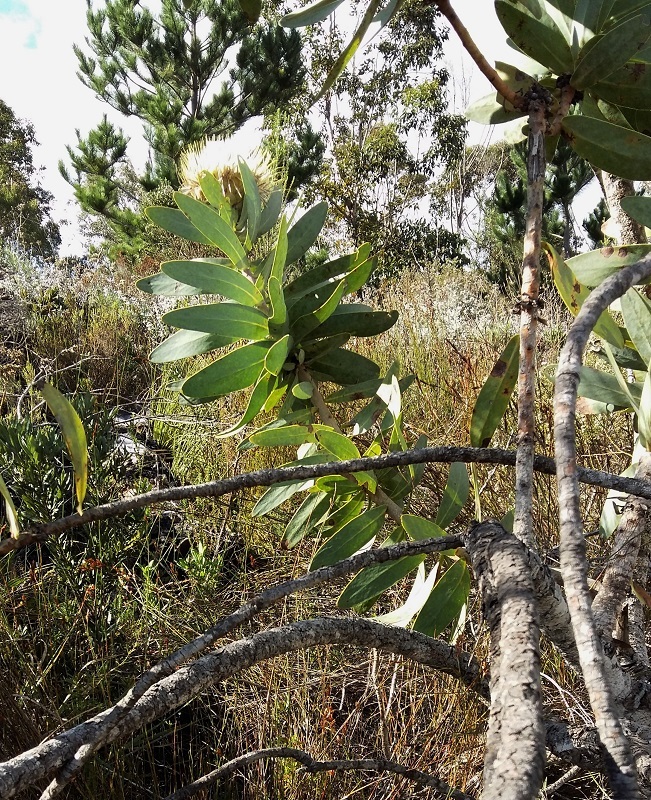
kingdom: Plantae
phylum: Tracheophyta
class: Magnoliopsida
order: Proteales
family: Proteaceae
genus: Protea
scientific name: Protea nitida
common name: Tree protea
